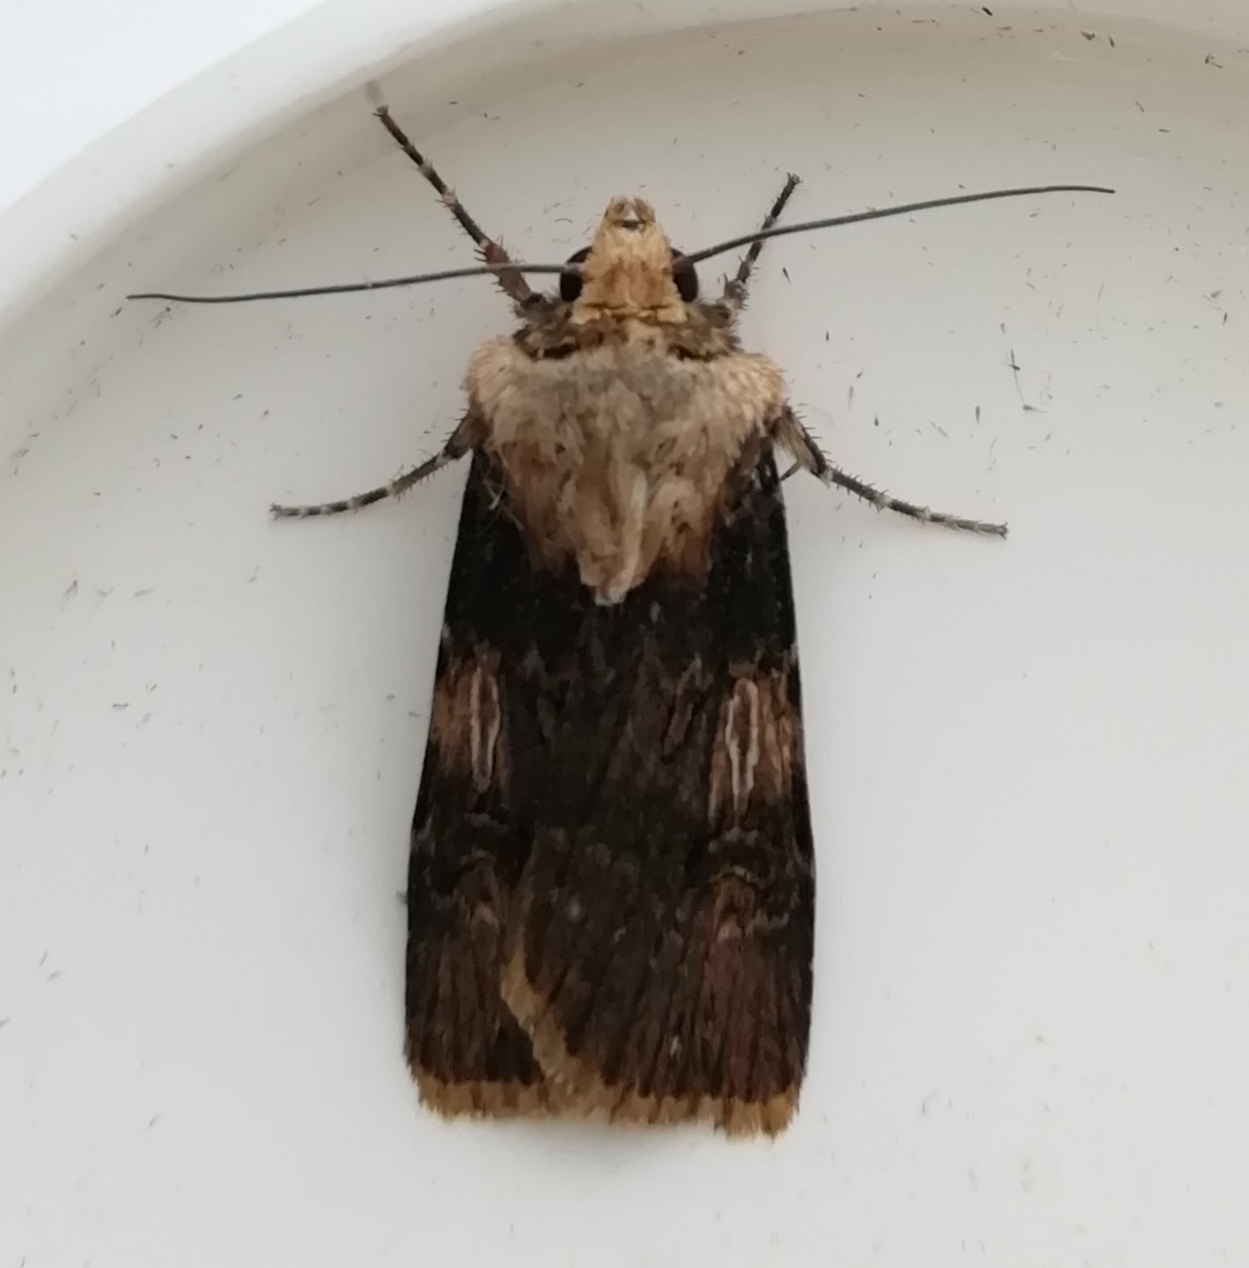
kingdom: Animalia
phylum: Arthropoda
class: Insecta
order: Lepidoptera
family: Noctuidae
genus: Agrotis
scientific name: Agrotis puta
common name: Shuttle-shaped dart
